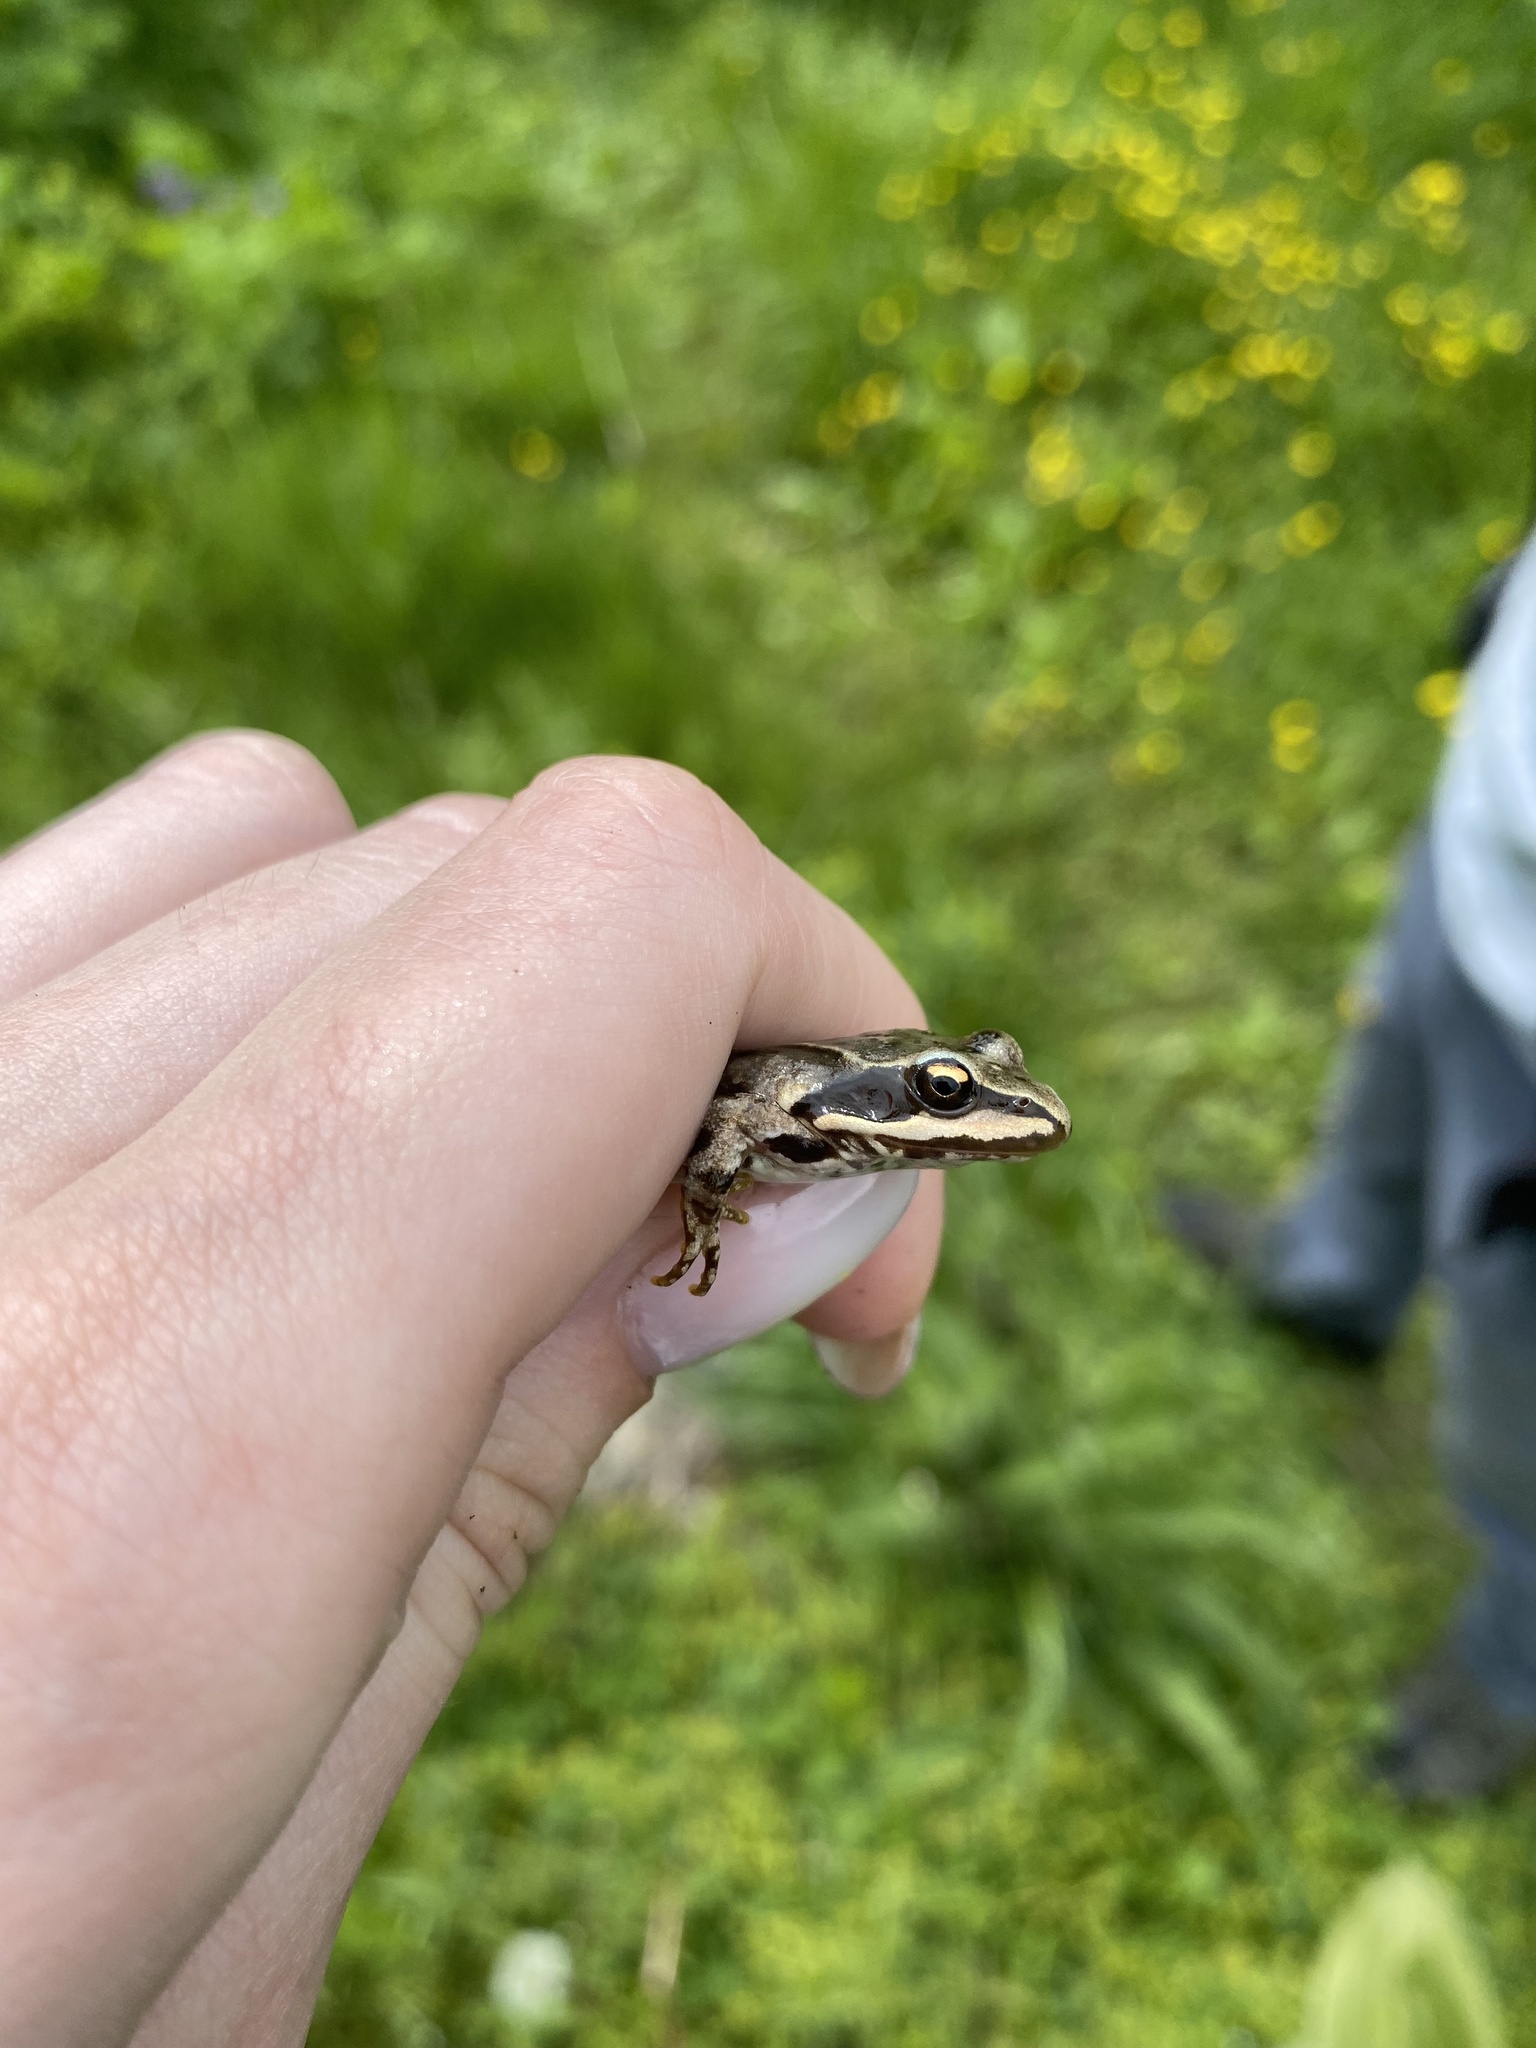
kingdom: Animalia
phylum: Chordata
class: Amphibia
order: Anura
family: Ranidae
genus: Rana
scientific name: Rana macrocnemis
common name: Banded frog
